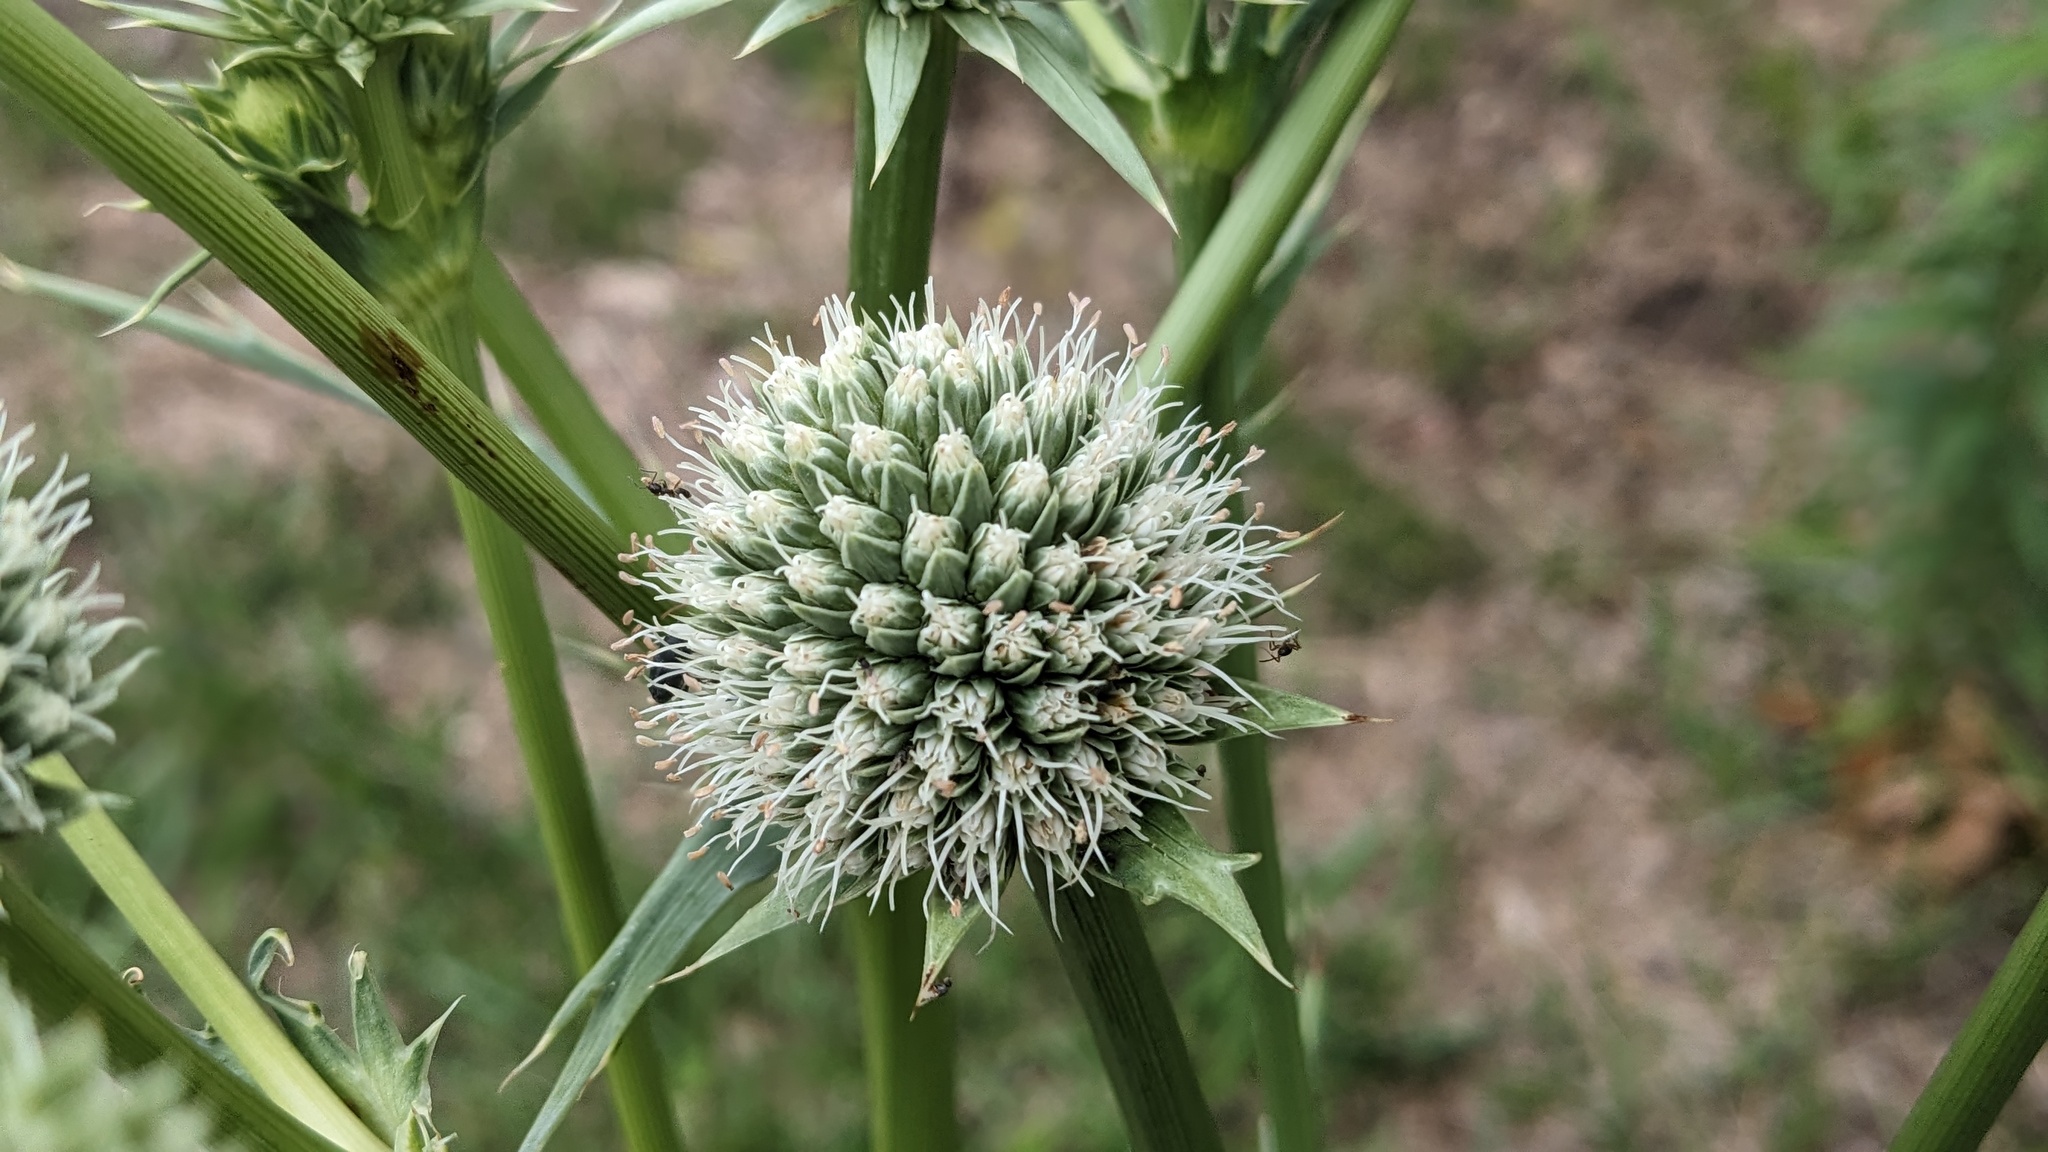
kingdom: Plantae
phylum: Tracheophyta
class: Magnoliopsida
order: Apiales
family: Apiaceae
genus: Eryngium
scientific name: Eryngium yuccifolium
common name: Button eryngo
